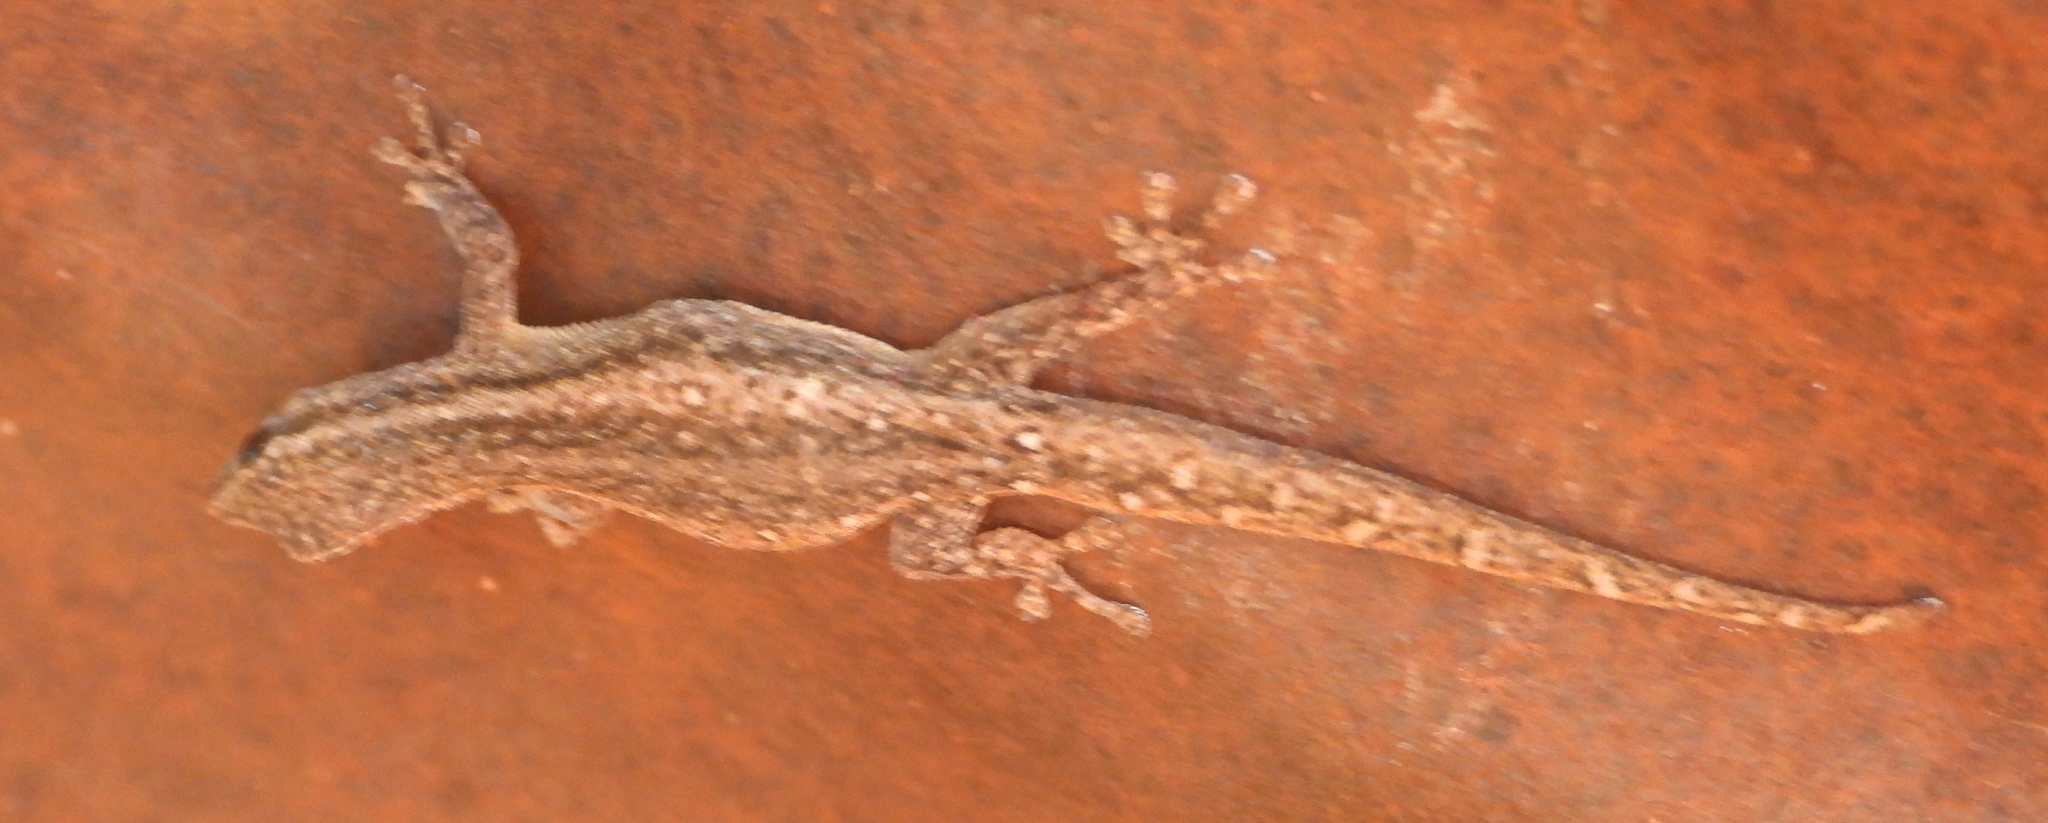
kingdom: Animalia
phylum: Chordata
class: Squamata
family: Gekkonidae
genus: Lygodactylus
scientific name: Lygodactylus capensis
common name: Cape dwarf gecko
